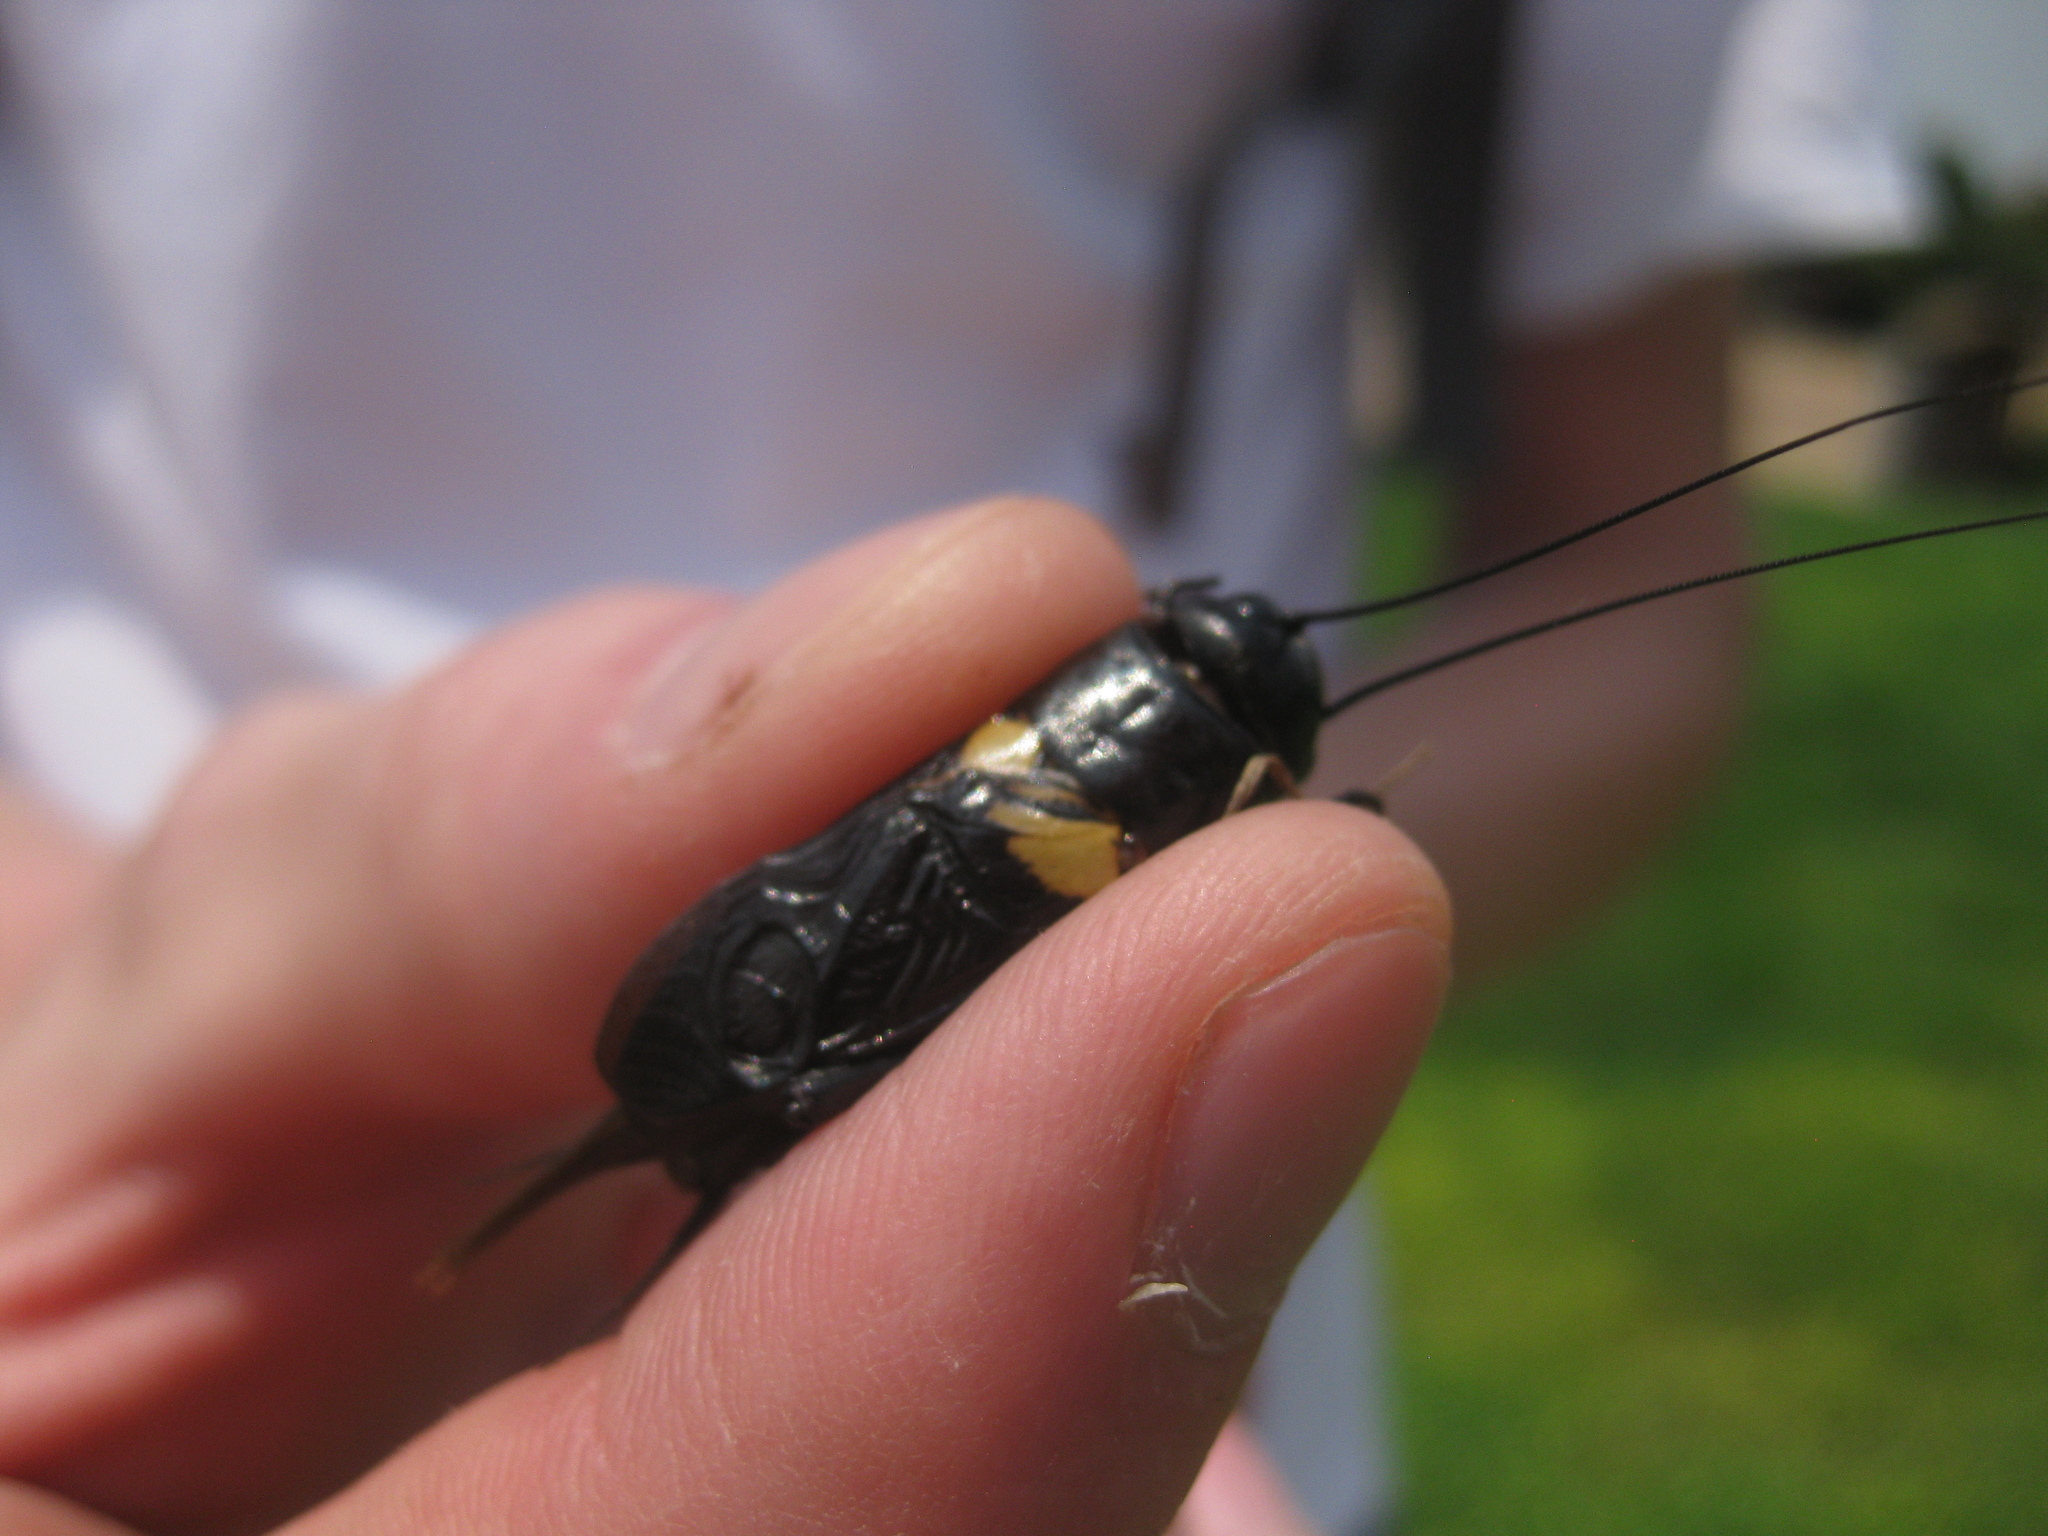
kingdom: Animalia
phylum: Arthropoda
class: Insecta
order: Orthoptera
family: Gryllidae
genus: Gryllus
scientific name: Gryllus bimaculatus
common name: Two-spotted cricket
